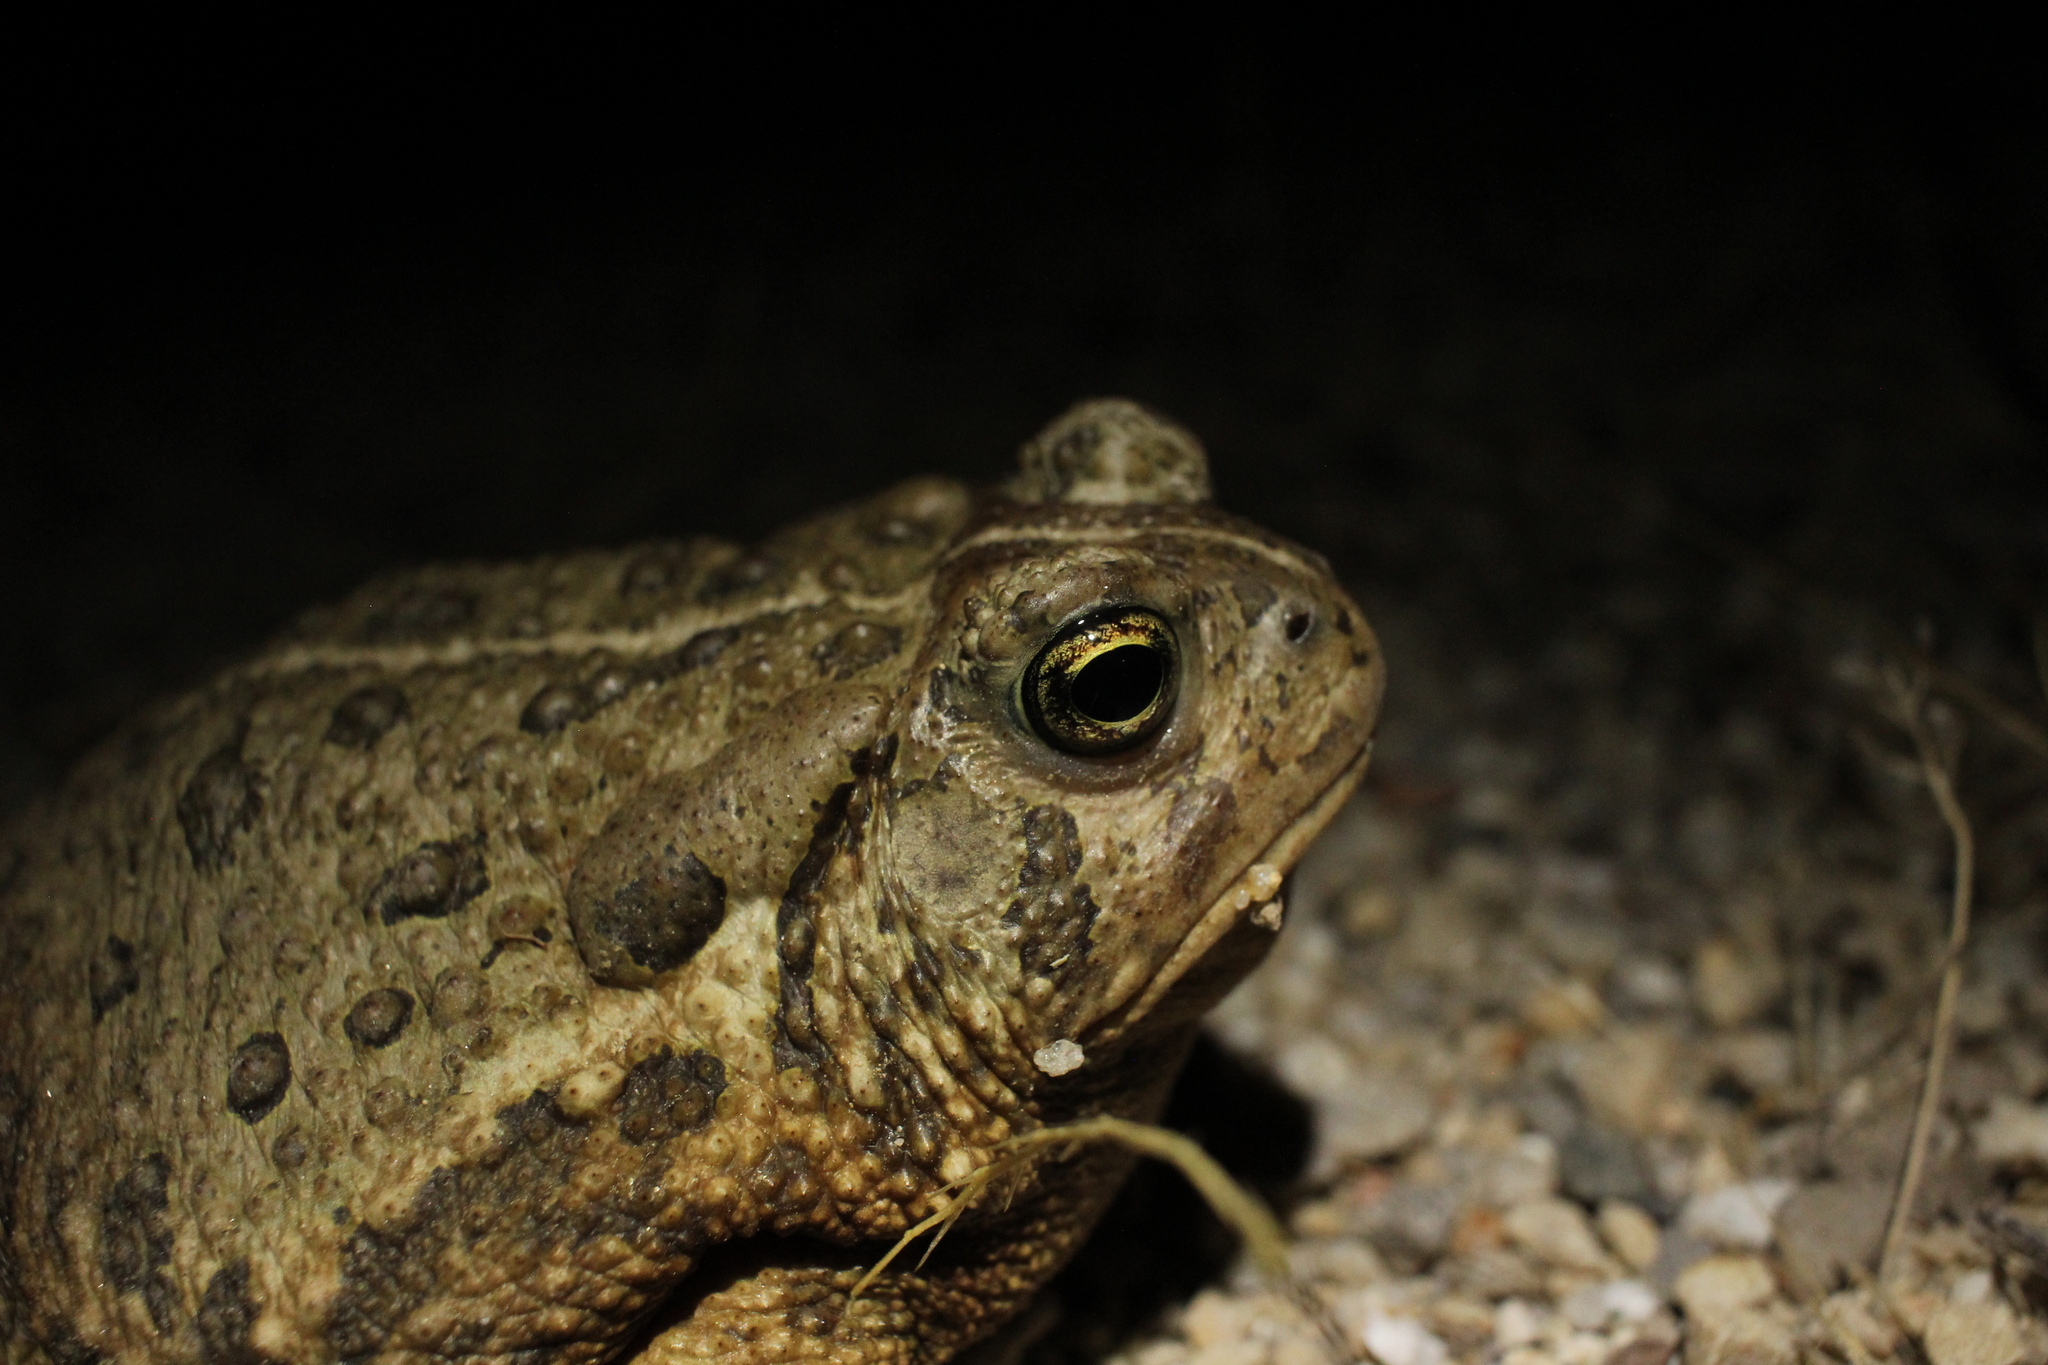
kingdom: Animalia
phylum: Chordata
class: Amphibia
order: Anura
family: Bufonidae
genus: Anaxyrus
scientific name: Anaxyrus woodhousii
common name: Woodhouse's toad
